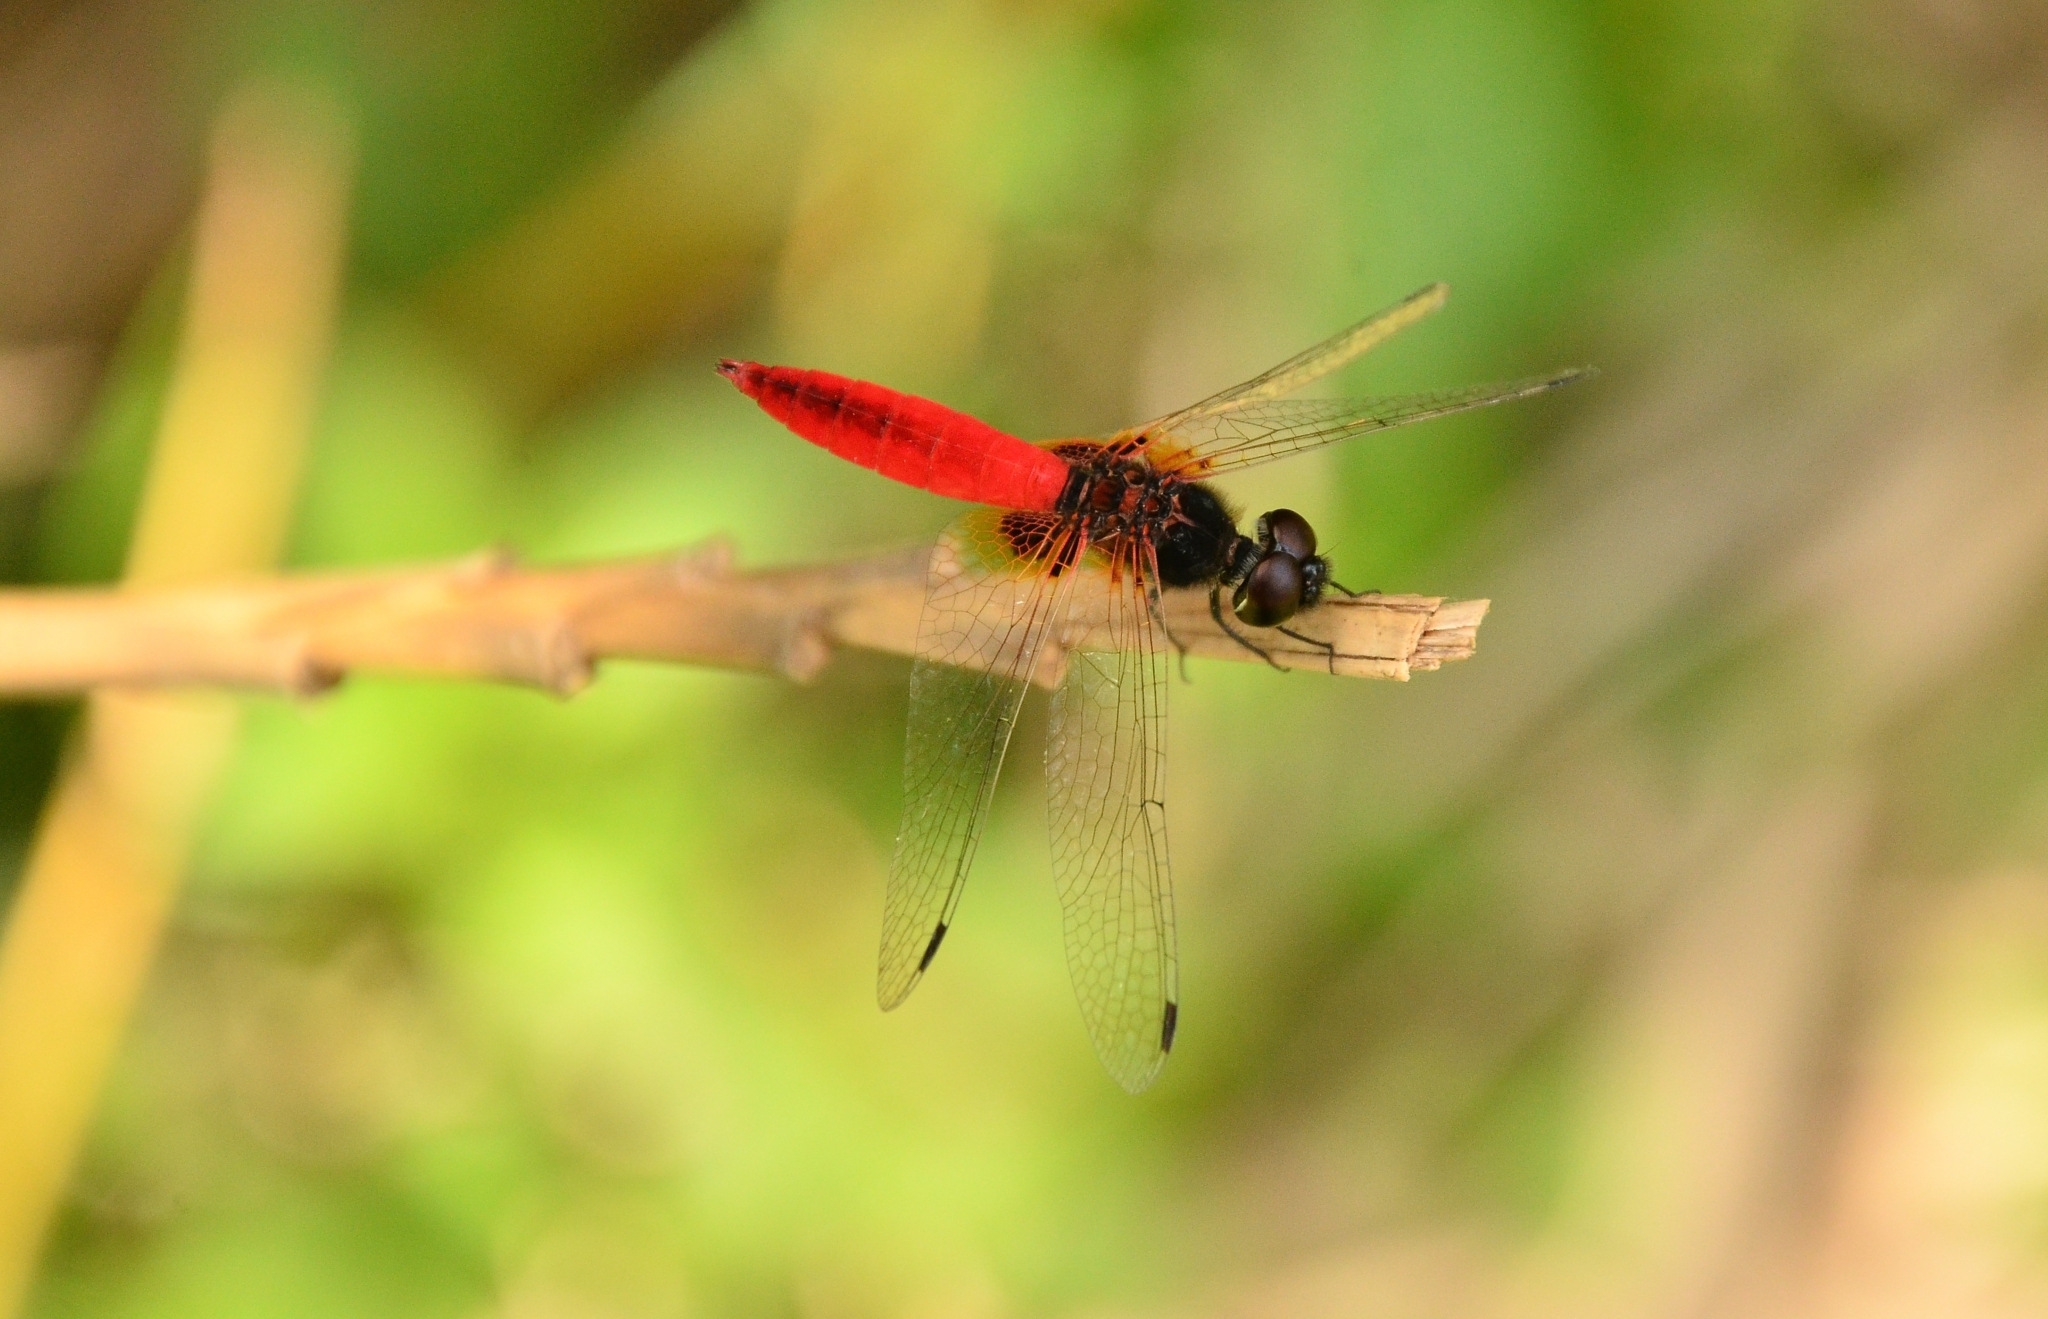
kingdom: Animalia
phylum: Arthropoda
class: Insecta
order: Odonata
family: Libellulidae
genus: Aethriamanta
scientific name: Aethriamanta brevipennis
